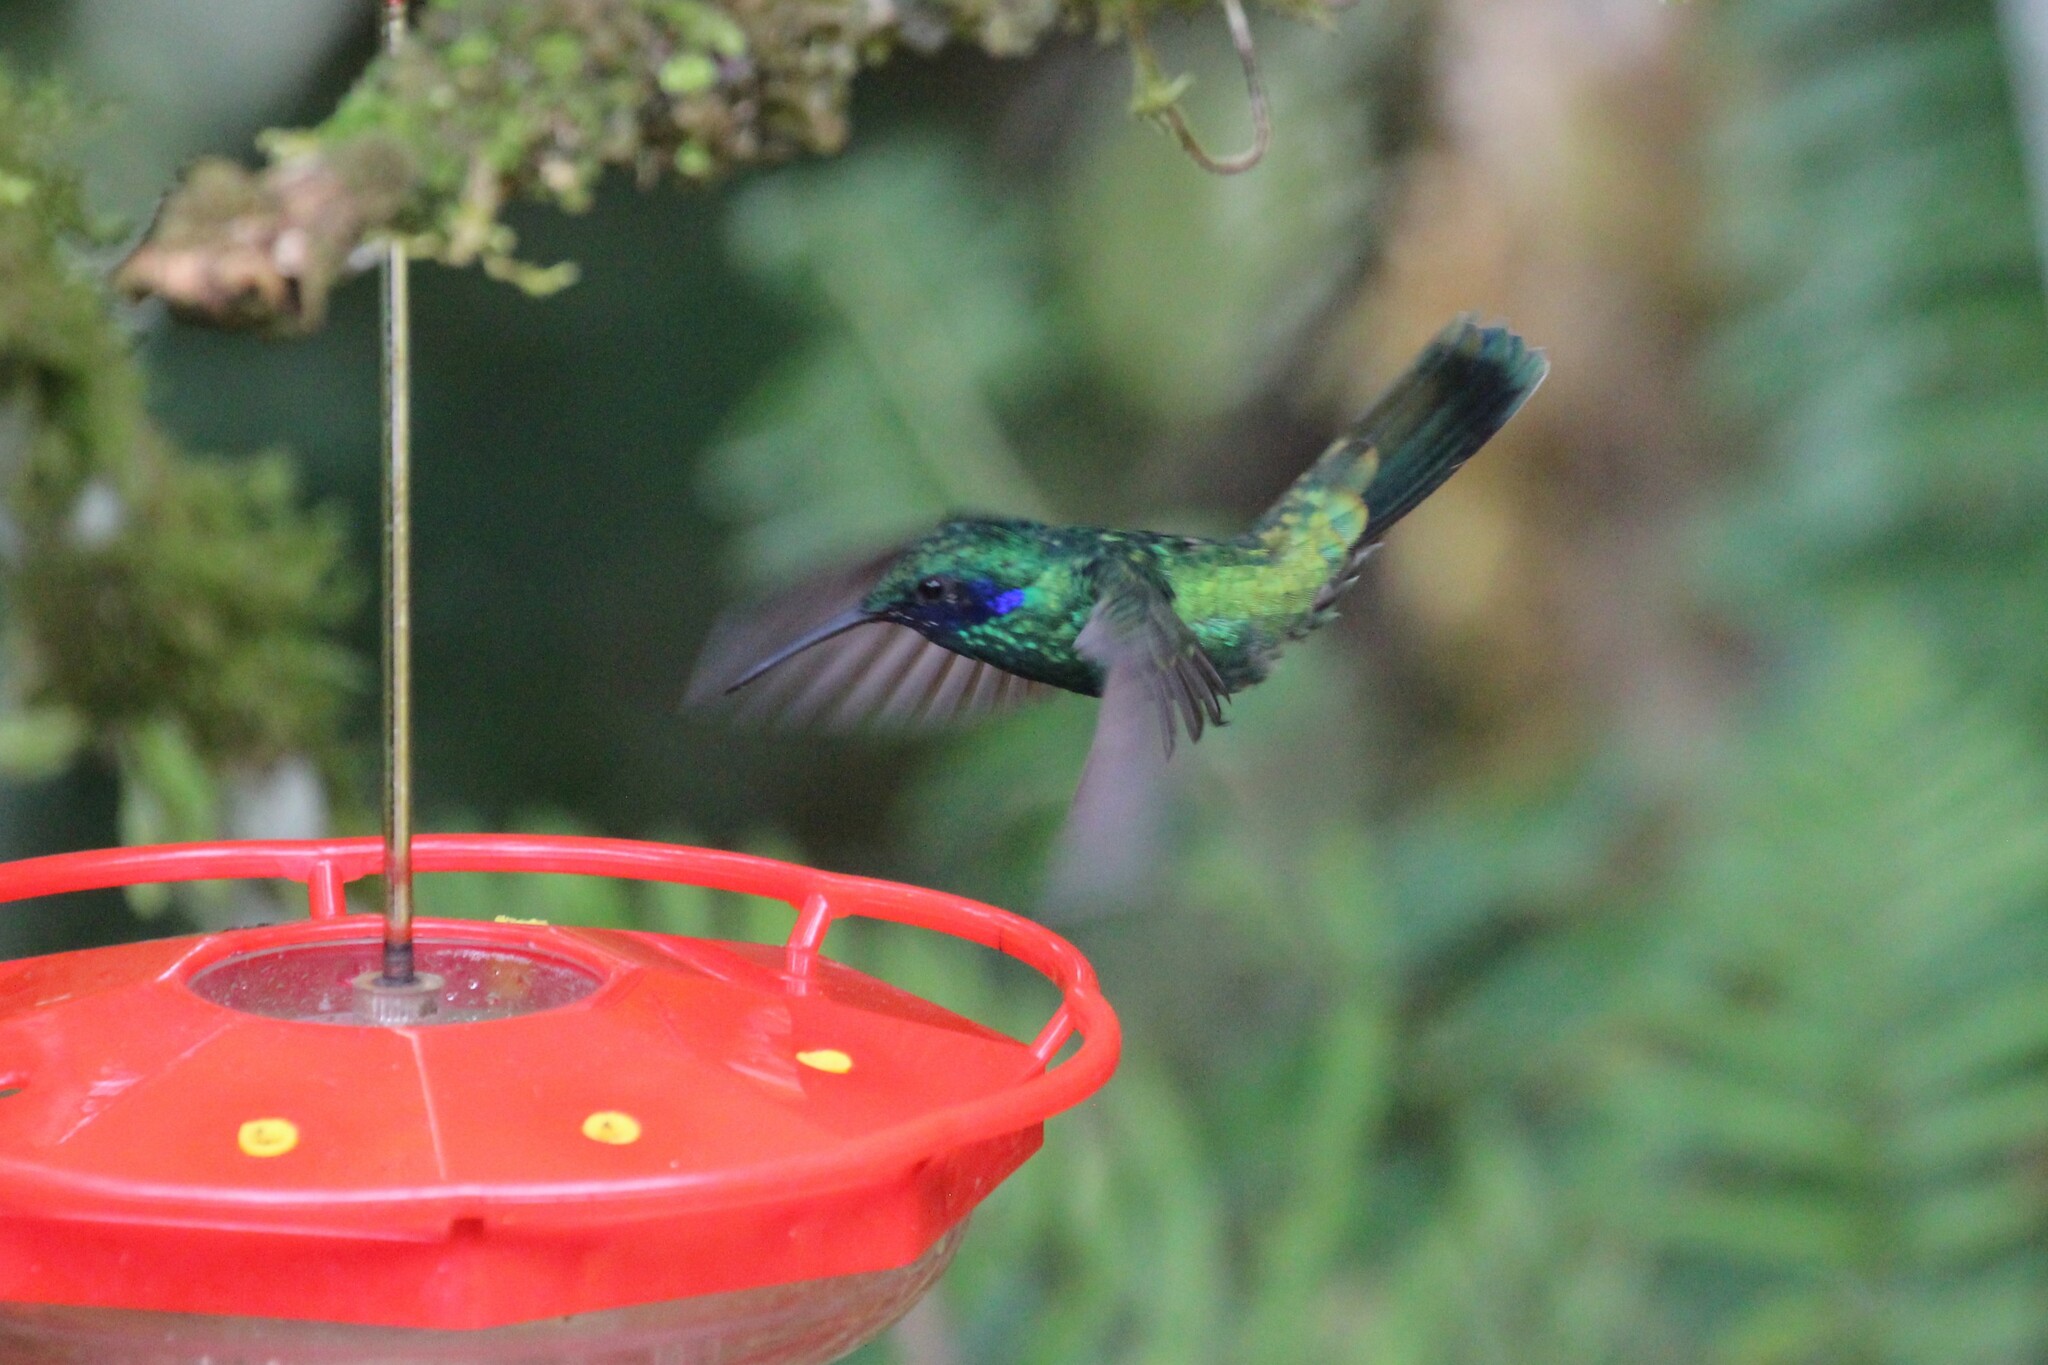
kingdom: Animalia
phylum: Chordata
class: Aves
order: Apodiformes
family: Trochilidae
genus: Colibri
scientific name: Colibri coruscans
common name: Sparkling violetear
